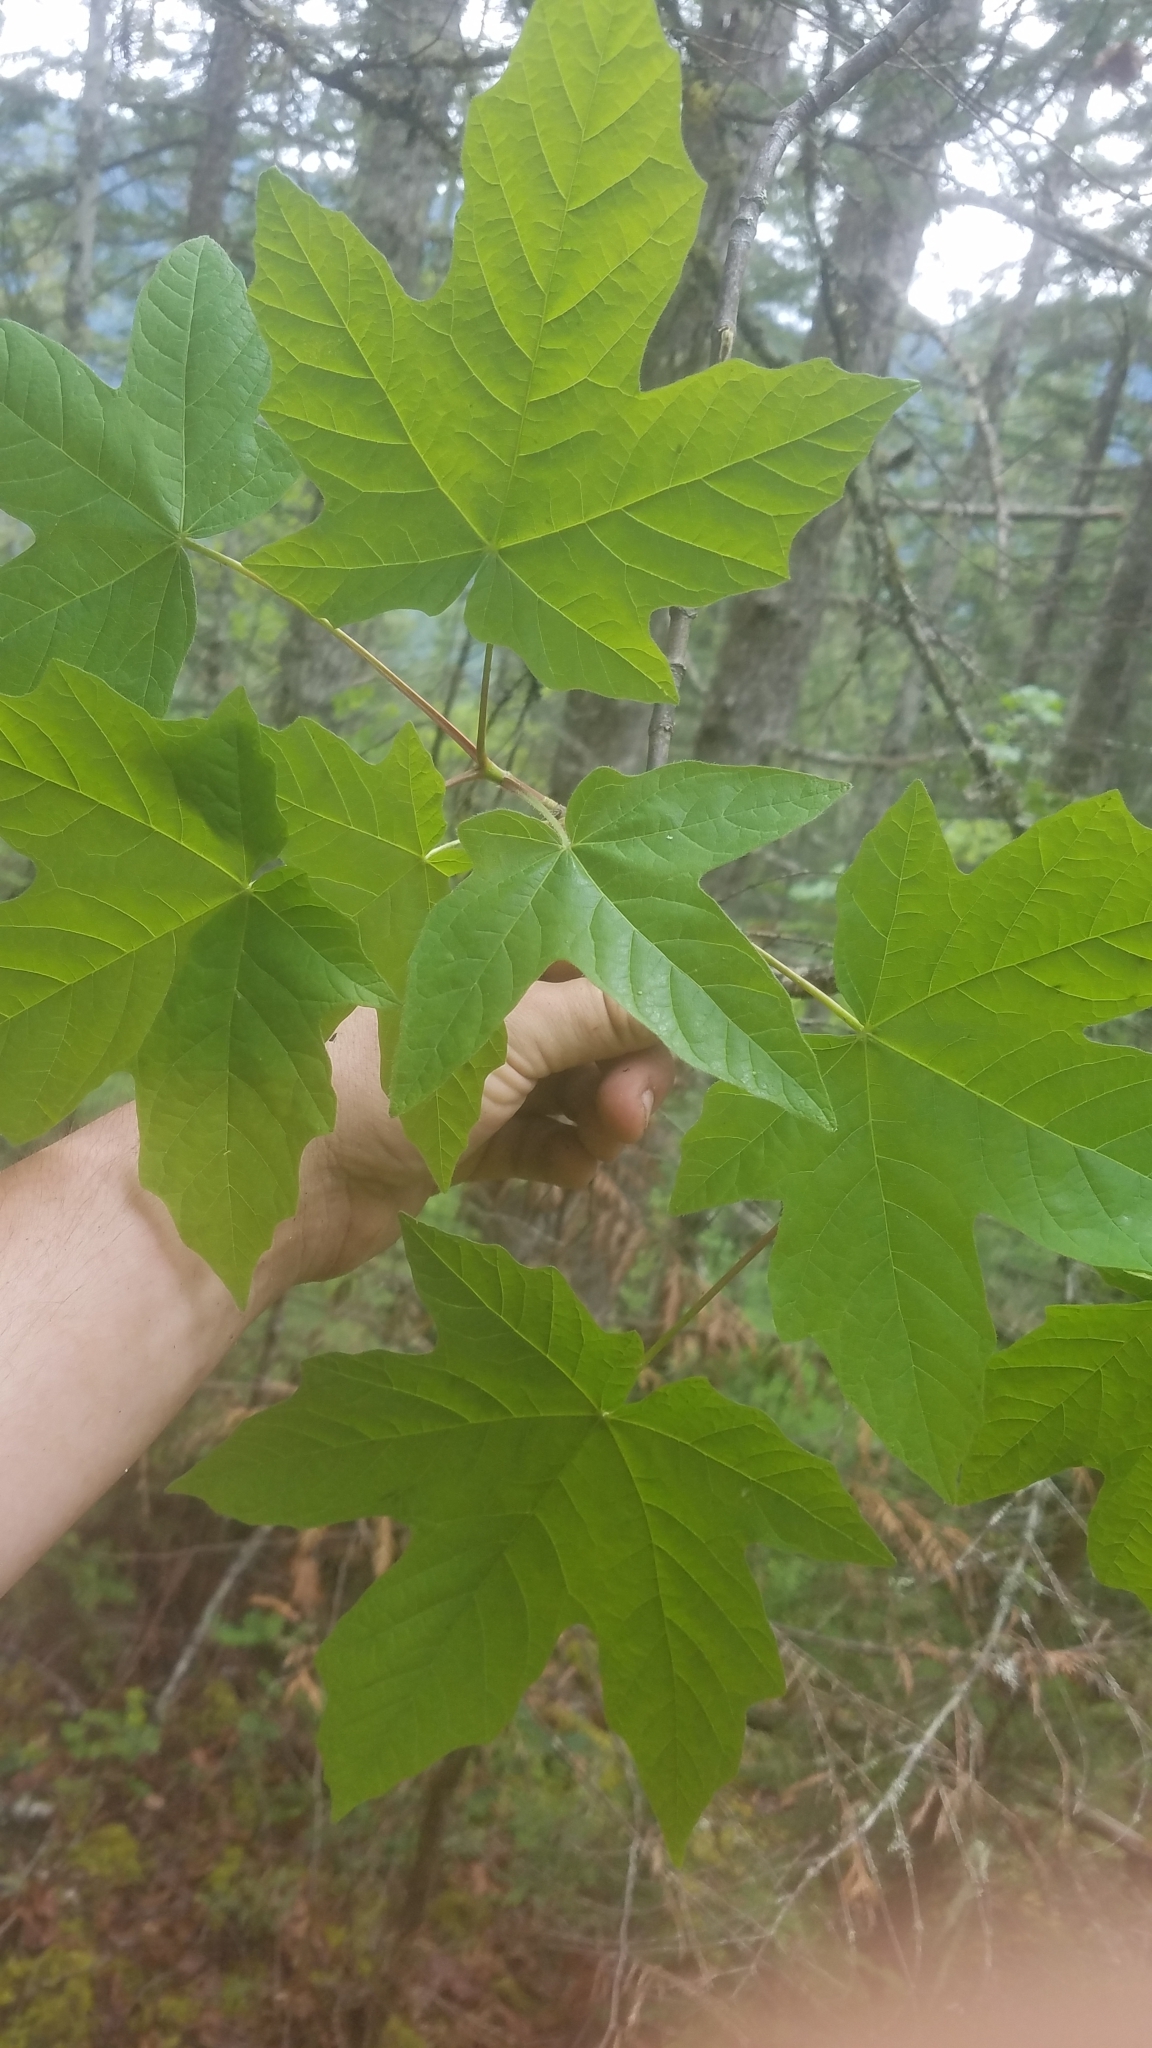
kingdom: Plantae
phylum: Tracheophyta
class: Magnoliopsida
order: Sapindales
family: Sapindaceae
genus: Acer
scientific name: Acer macrophyllum
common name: Oregon maple
